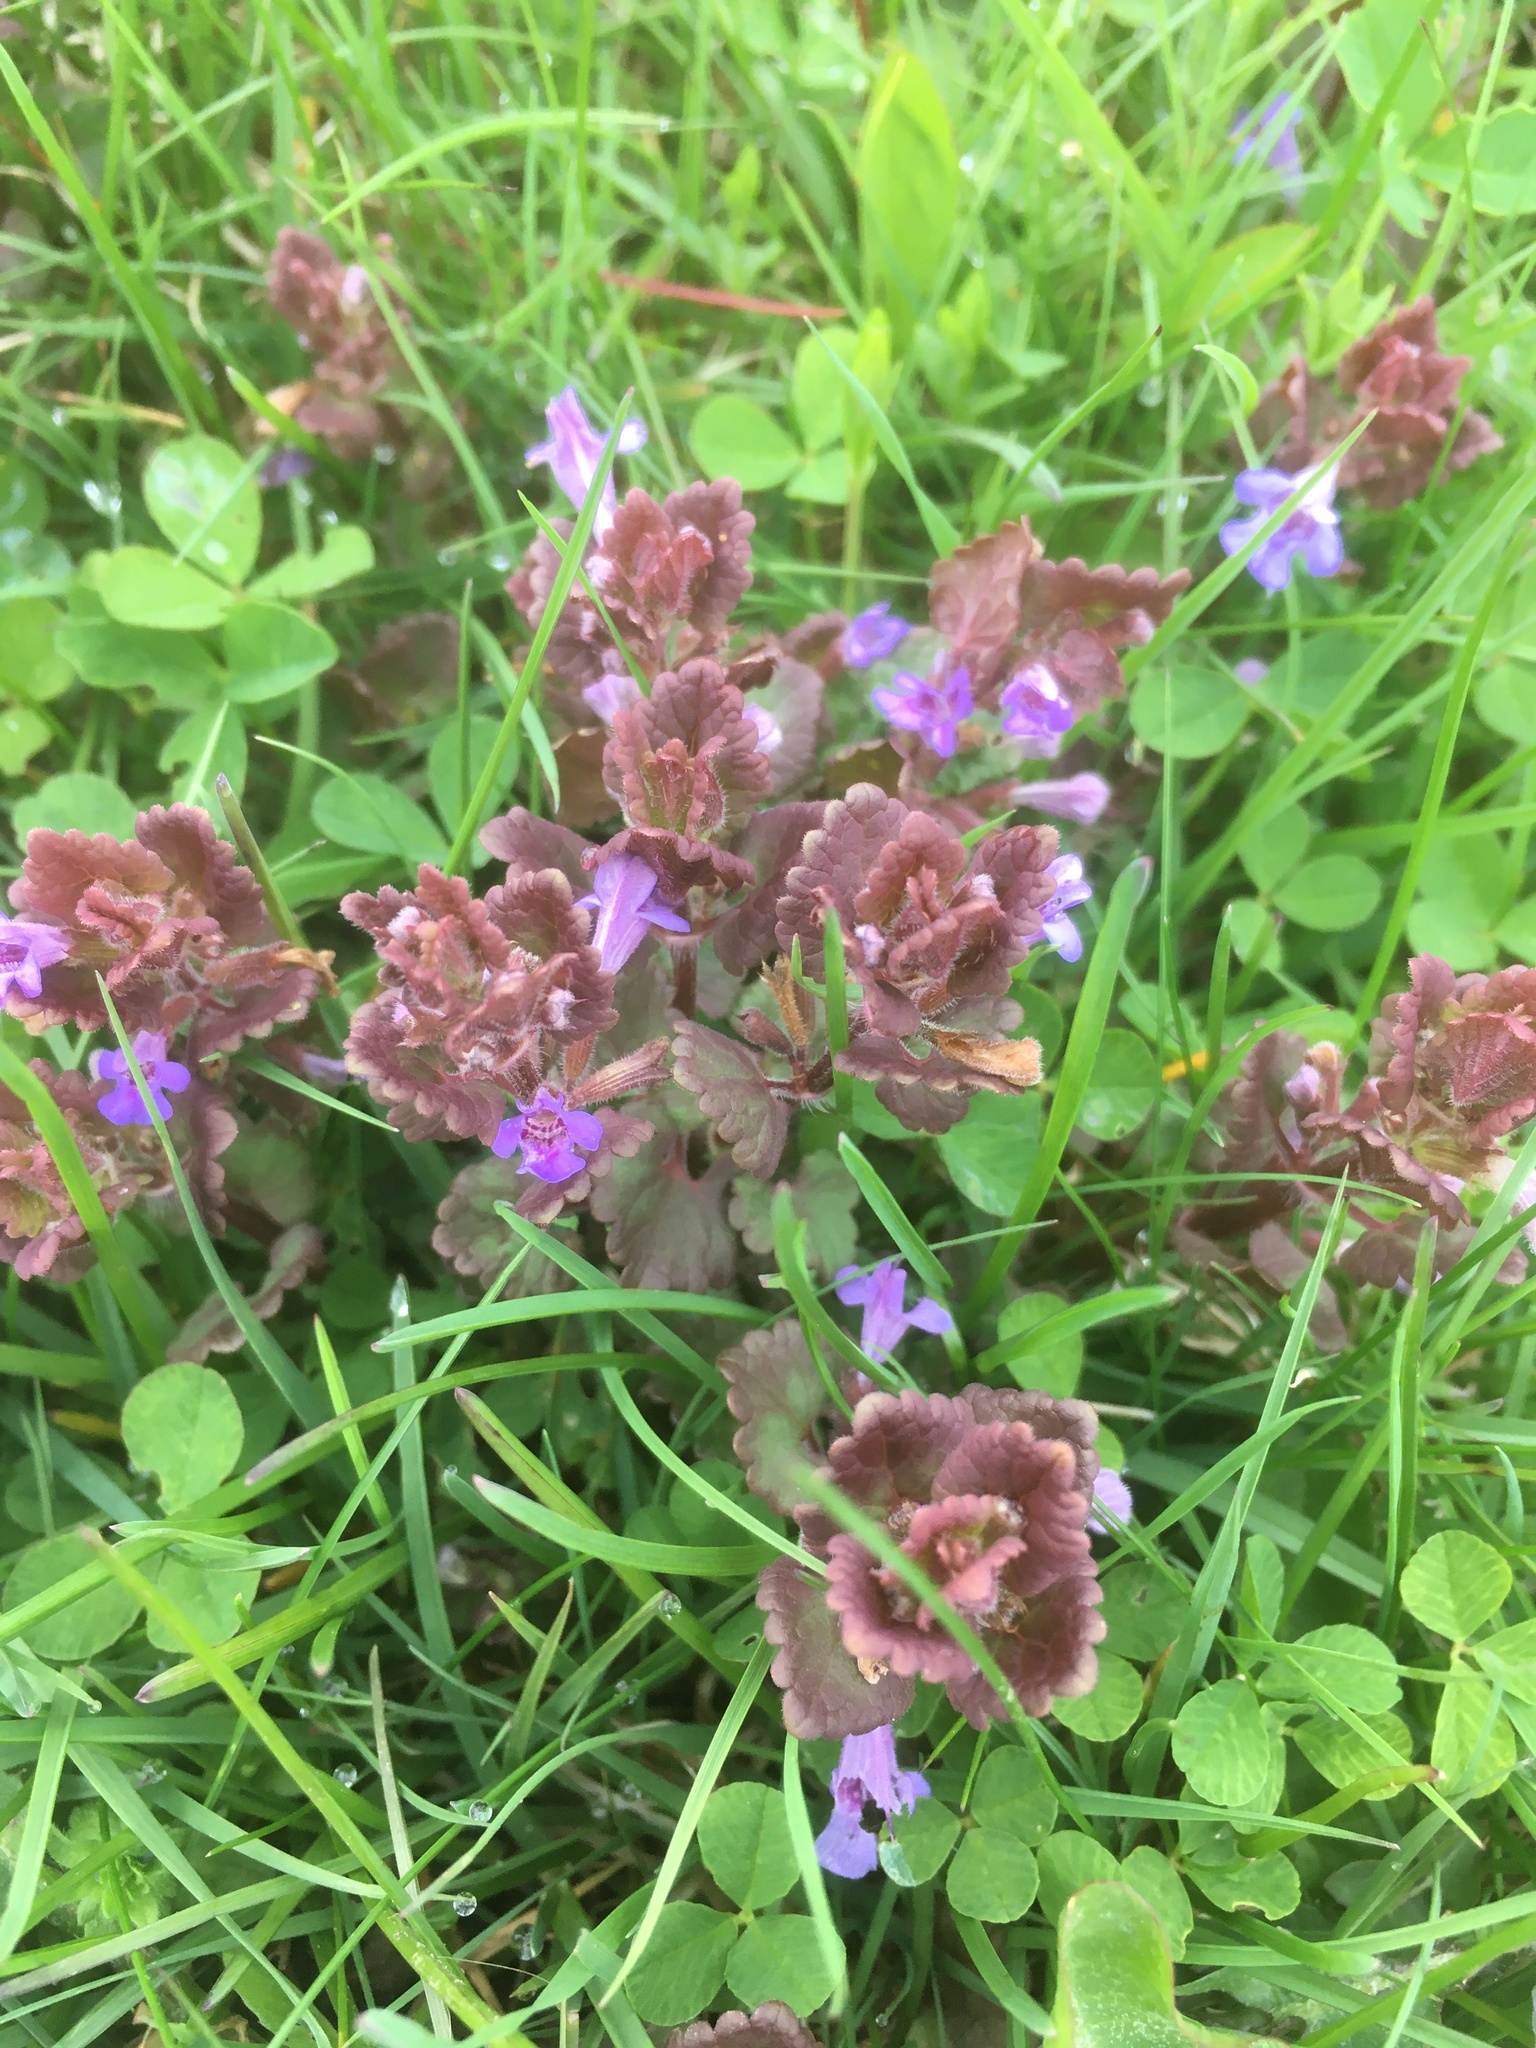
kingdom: Plantae
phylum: Tracheophyta
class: Magnoliopsida
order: Lamiales
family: Lamiaceae
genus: Glechoma
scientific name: Glechoma hederacea
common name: Ground ivy
